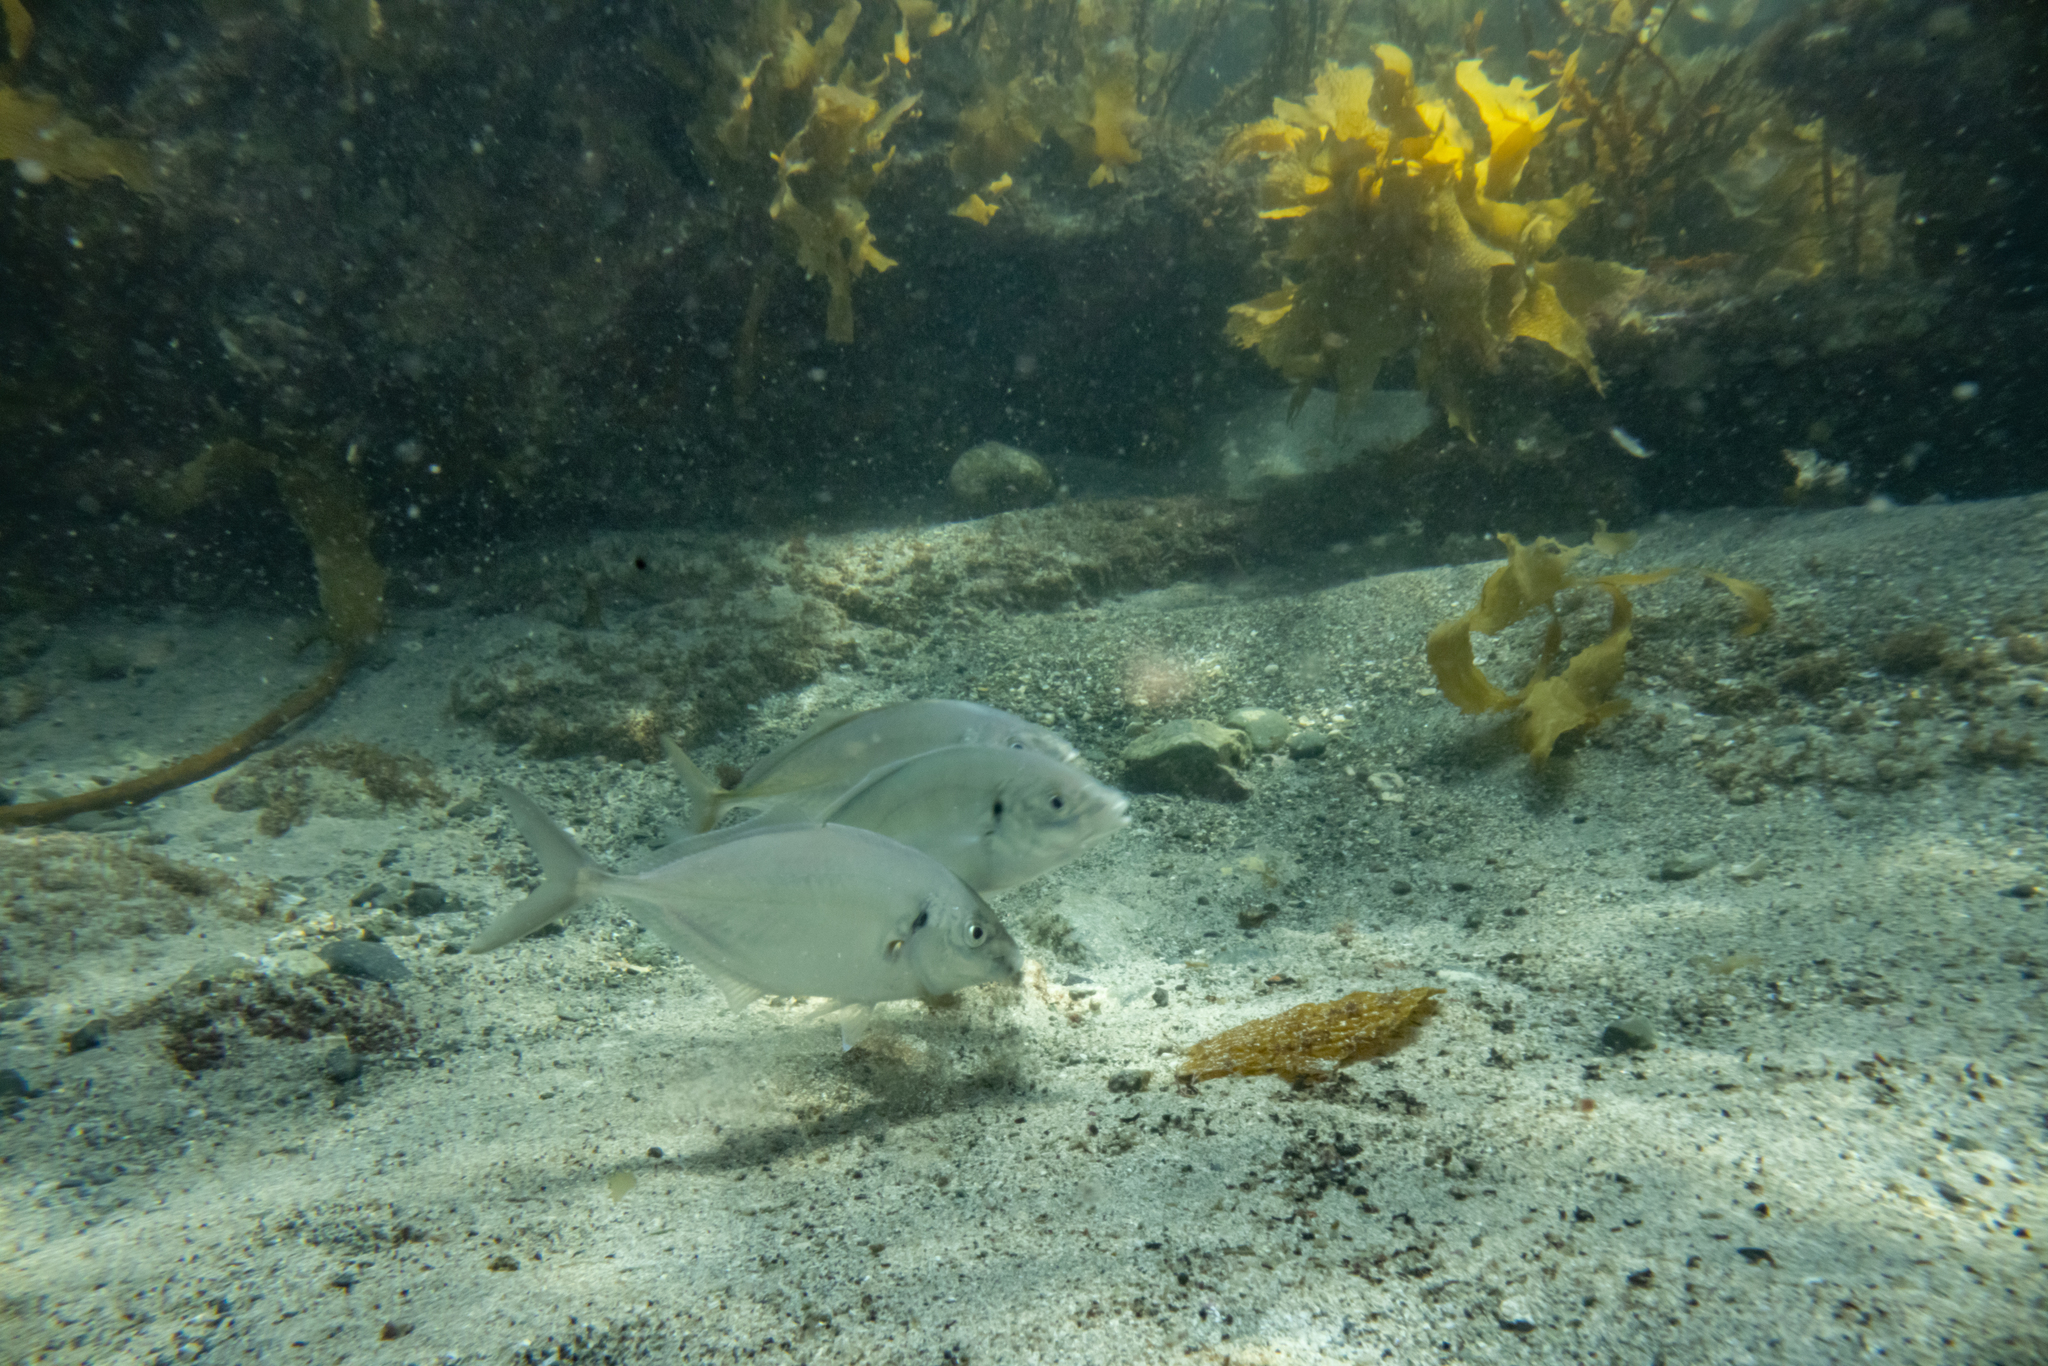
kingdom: Animalia
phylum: Chordata
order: Perciformes
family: Carangidae
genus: Pseudocaranx
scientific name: Pseudocaranx dentex
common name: White trevally
